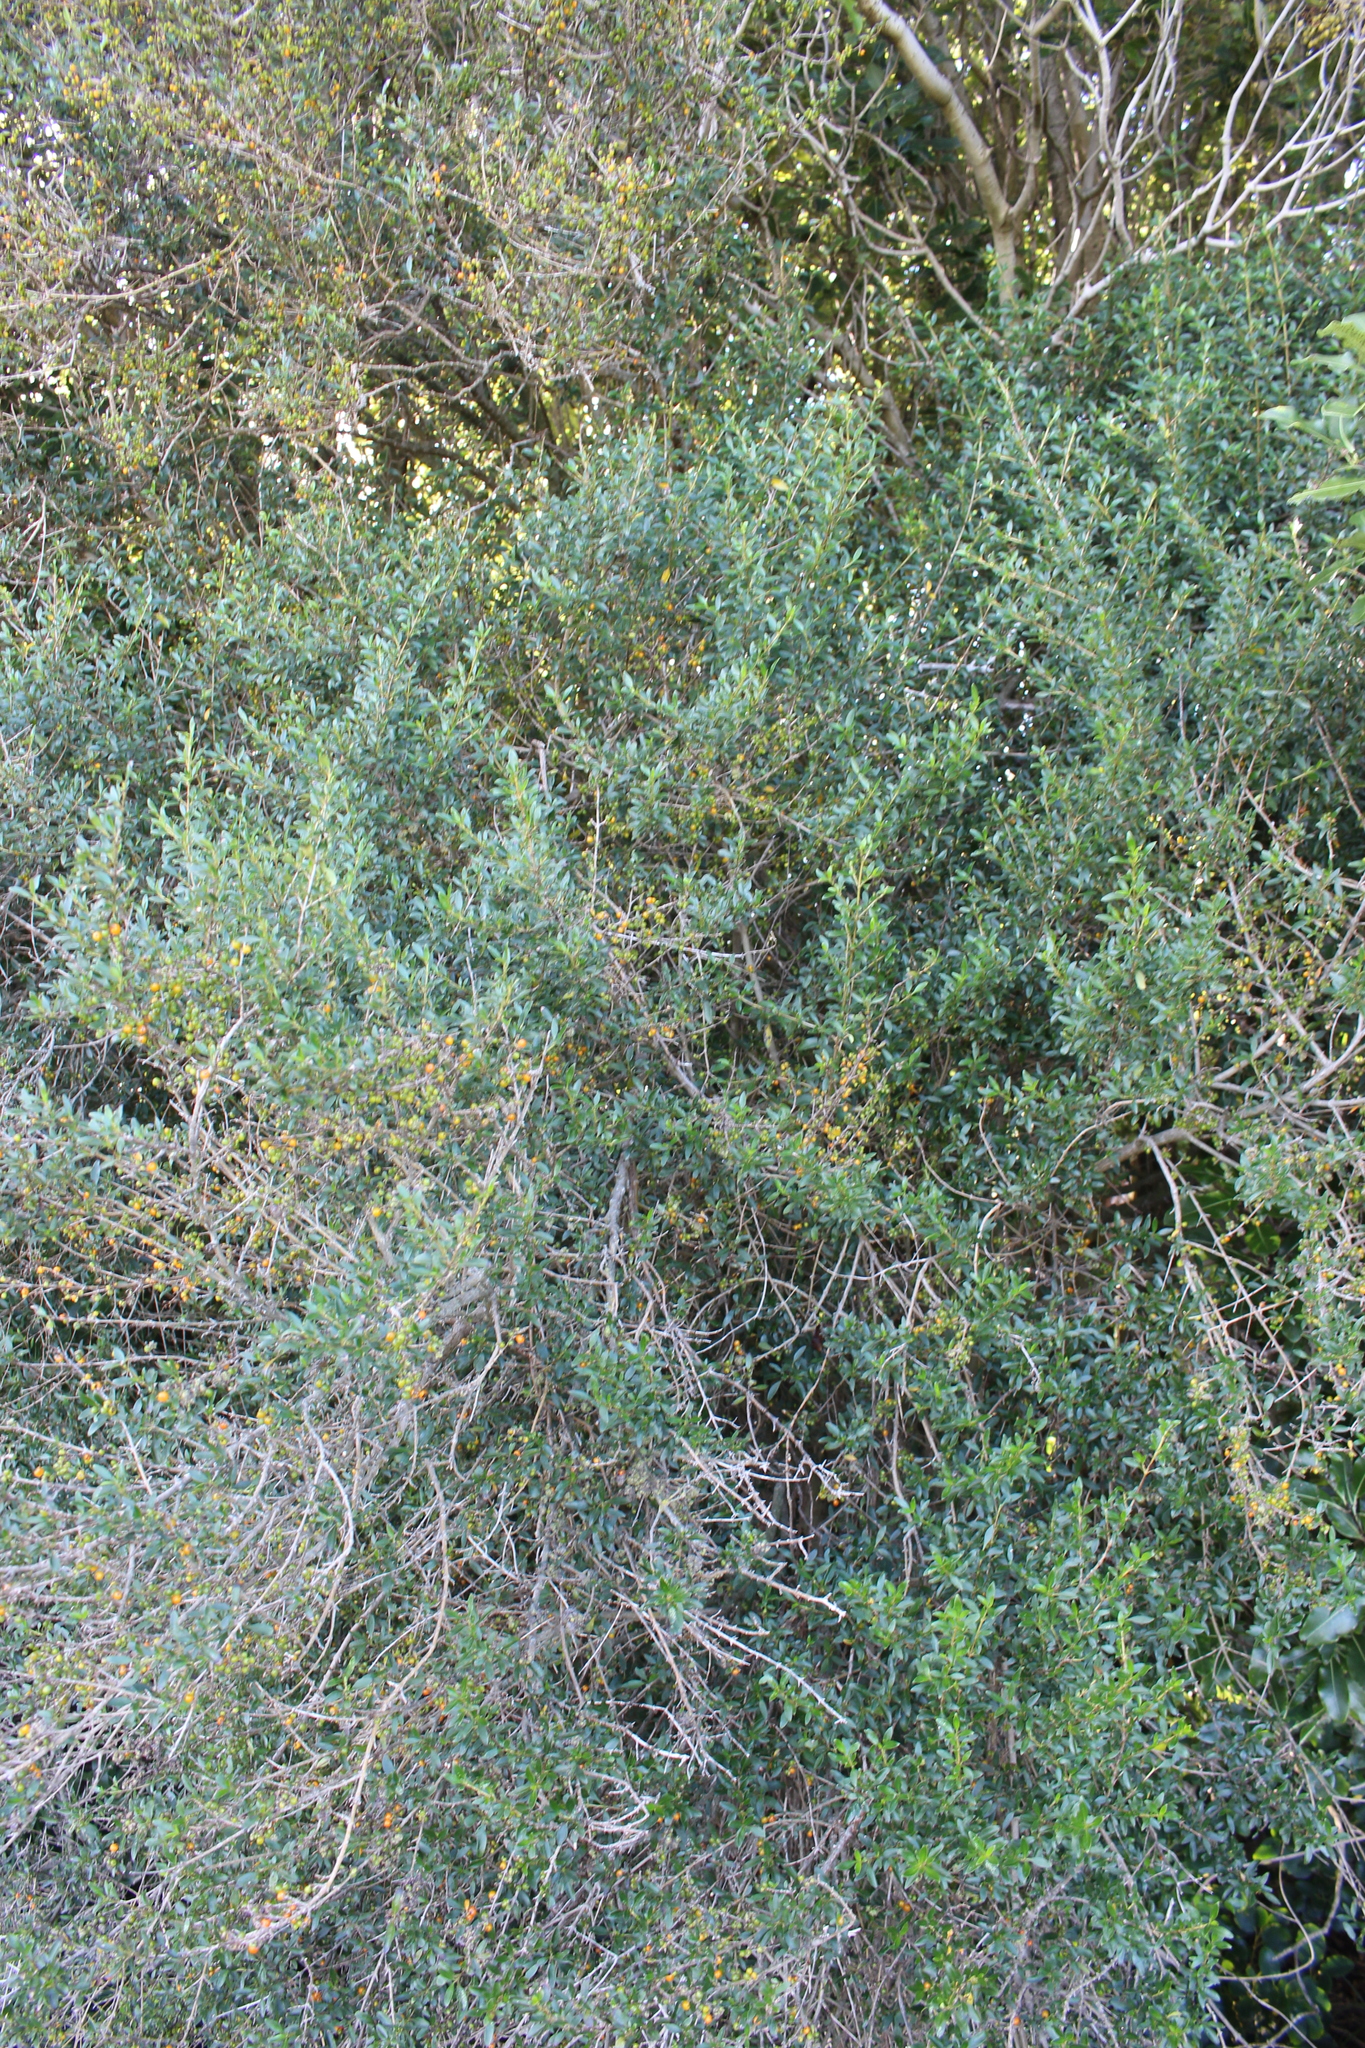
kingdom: Plantae
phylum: Tracheophyta
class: Magnoliopsida
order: Gentianales
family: Rubiaceae
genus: Coprosma
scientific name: Coprosma cunninghamii
